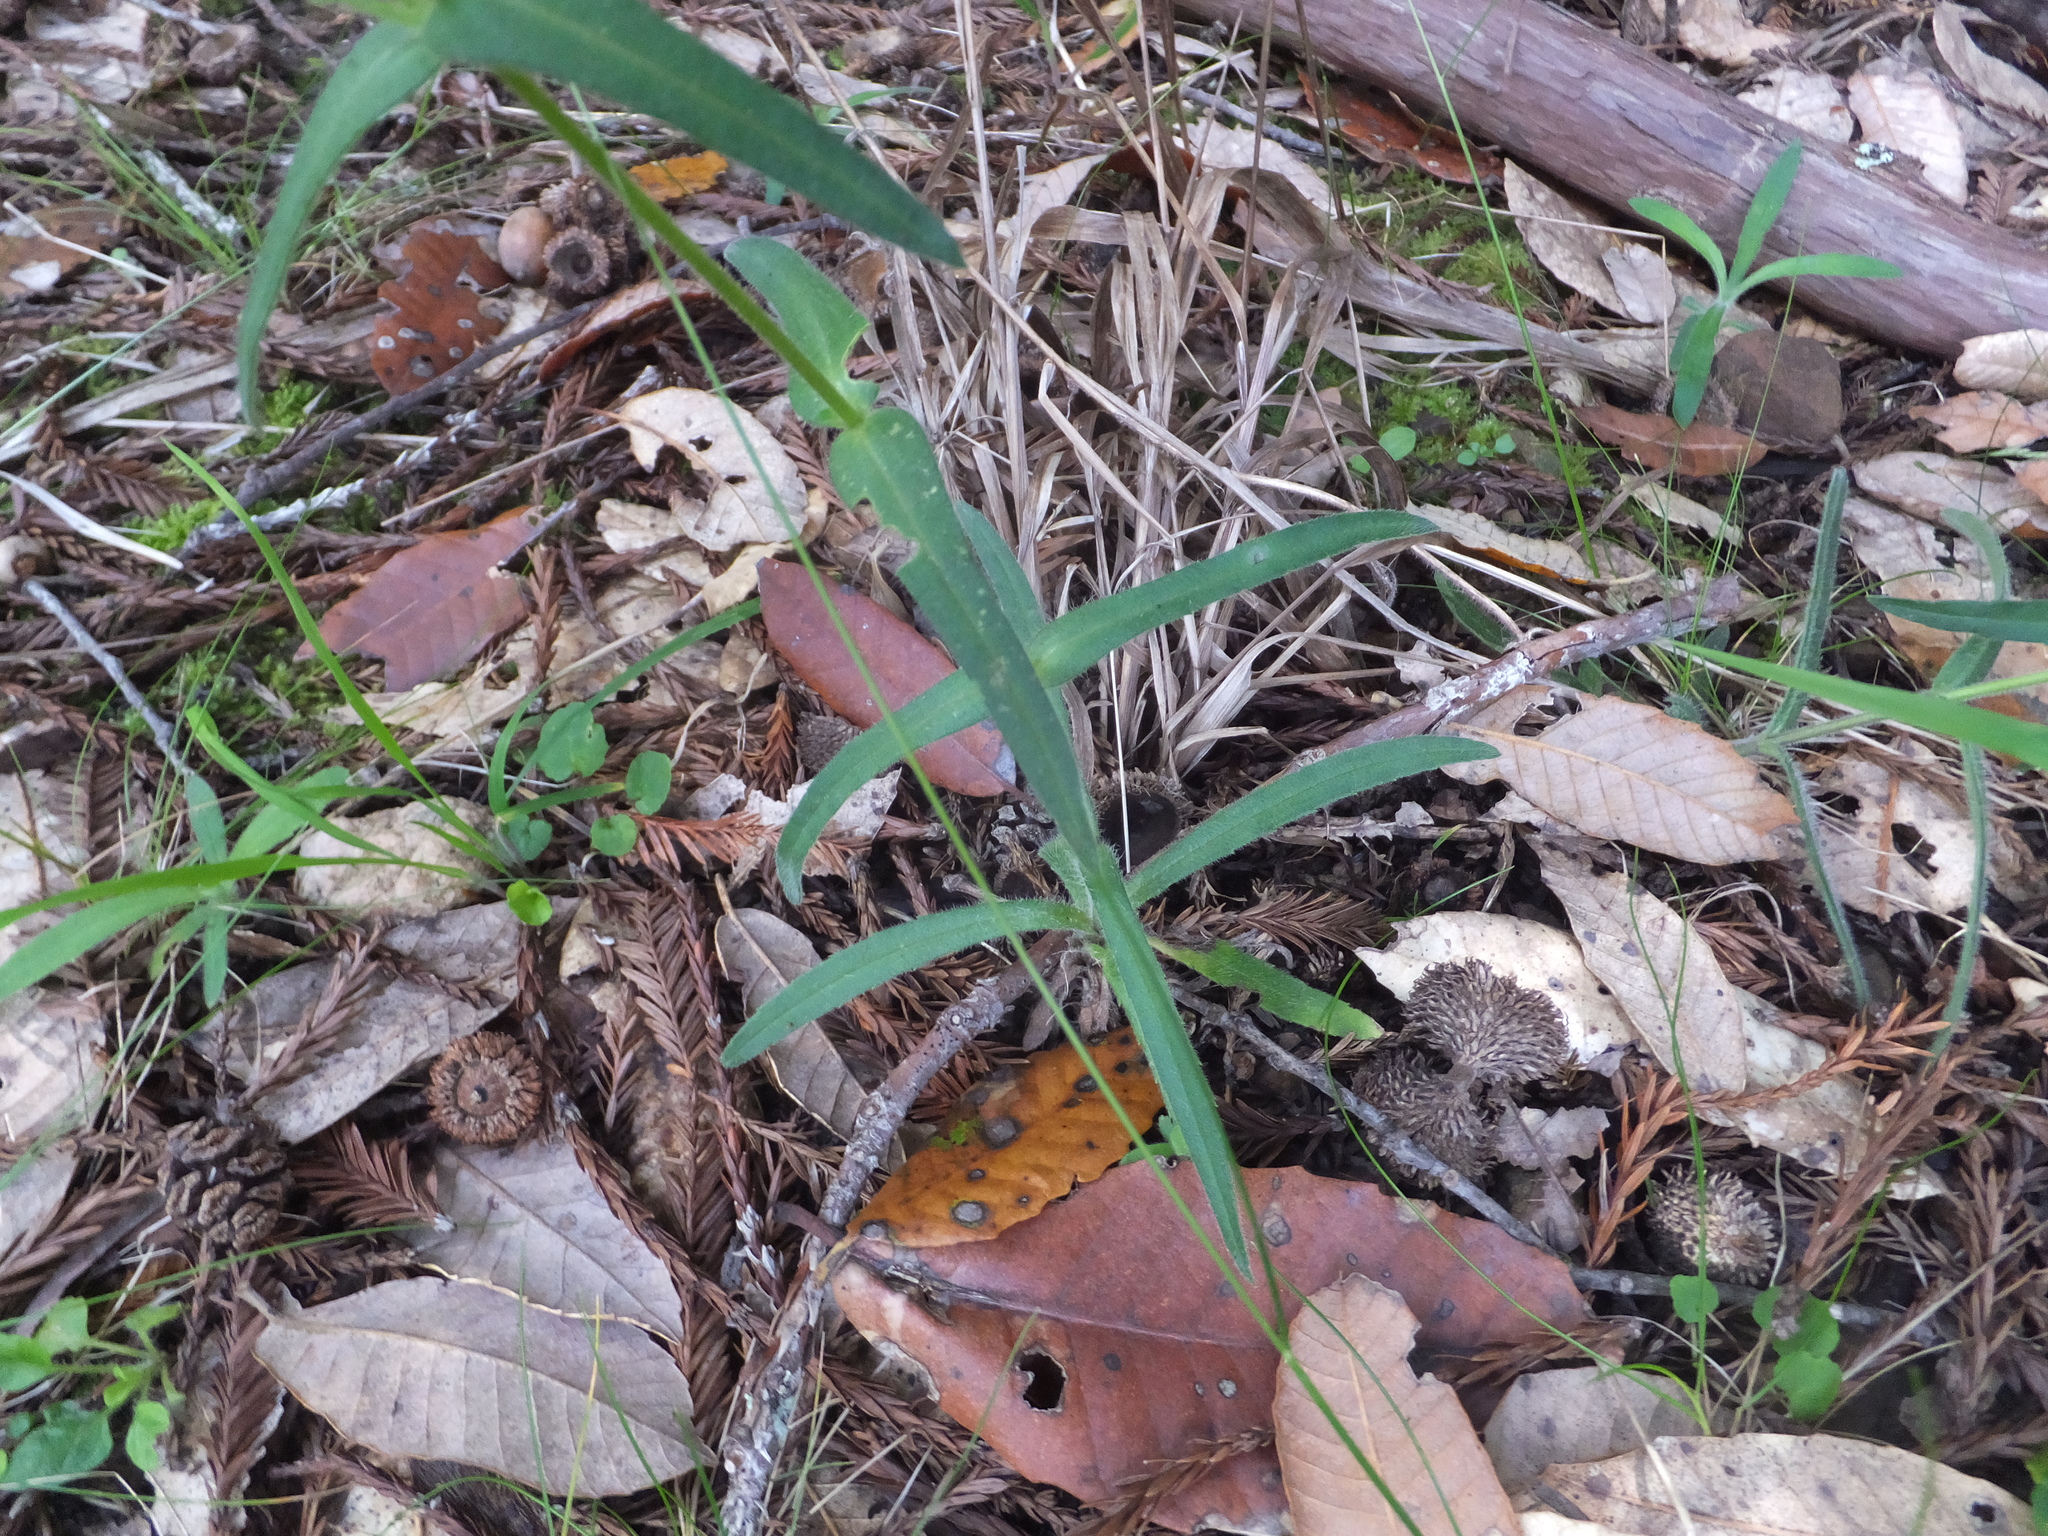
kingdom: Plantae
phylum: Tracheophyta
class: Magnoliopsida
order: Asterales
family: Asteraceae
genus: Anisocarpus
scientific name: Anisocarpus madioides
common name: Woodland madia
